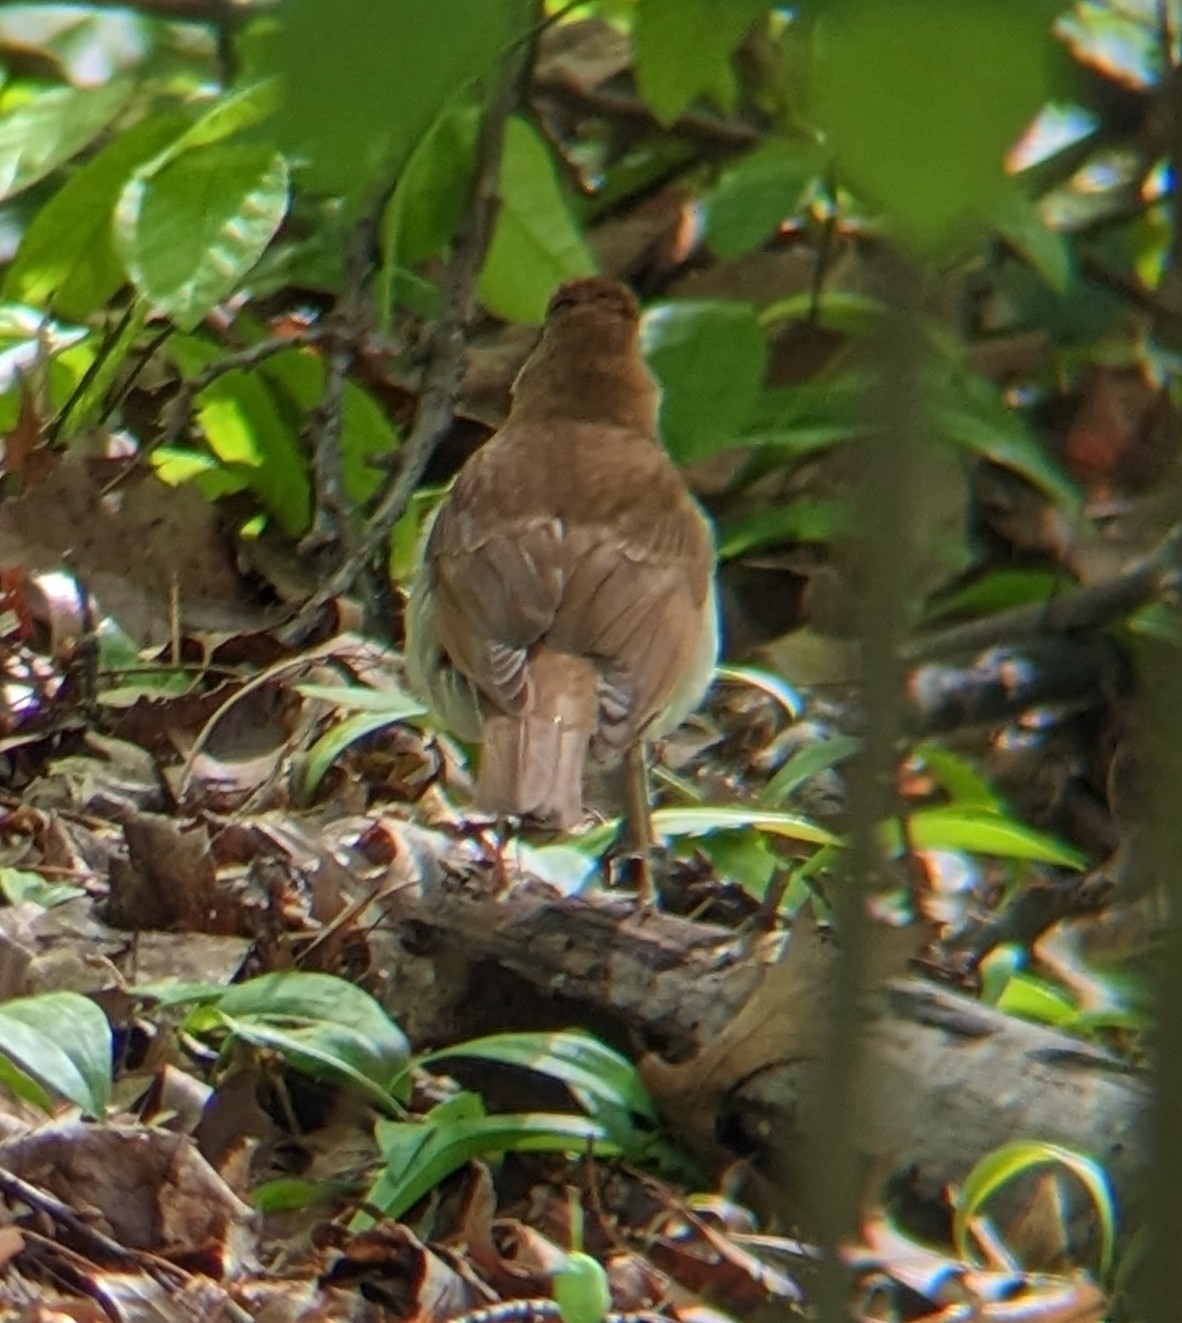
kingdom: Animalia
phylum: Chordata
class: Aves
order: Passeriformes
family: Turdidae
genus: Catharus
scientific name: Catharus fuscescens
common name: Veery
